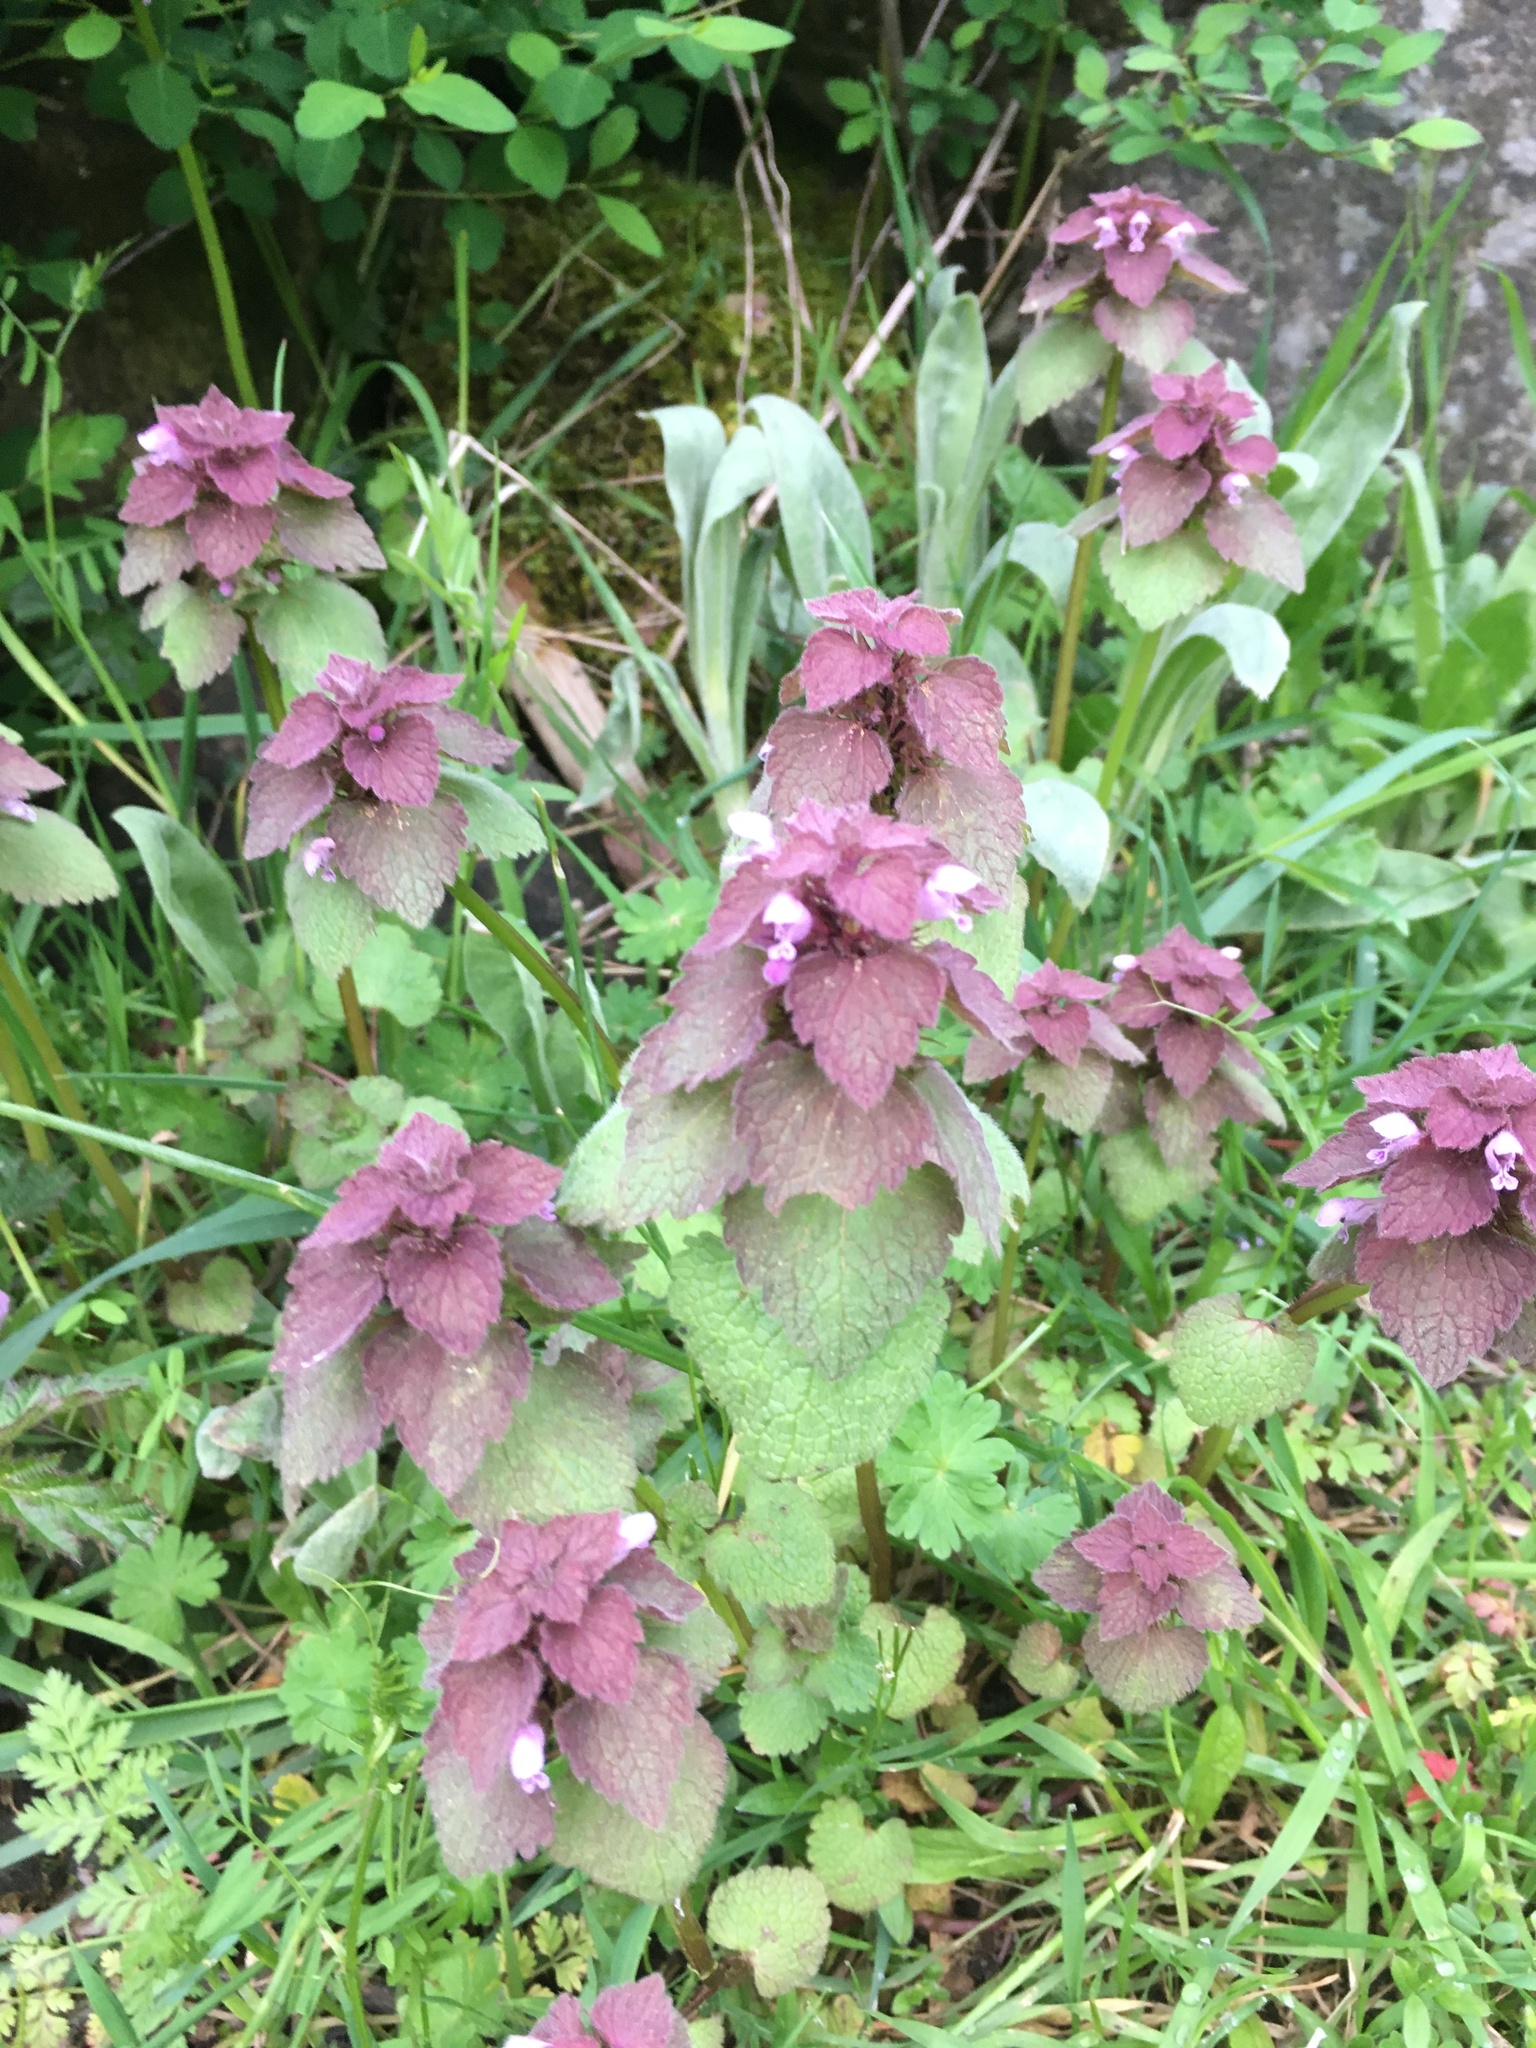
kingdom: Plantae
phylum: Tracheophyta
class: Magnoliopsida
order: Lamiales
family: Lamiaceae
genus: Lamium
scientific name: Lamium purpureum
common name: Red dead-nettle
